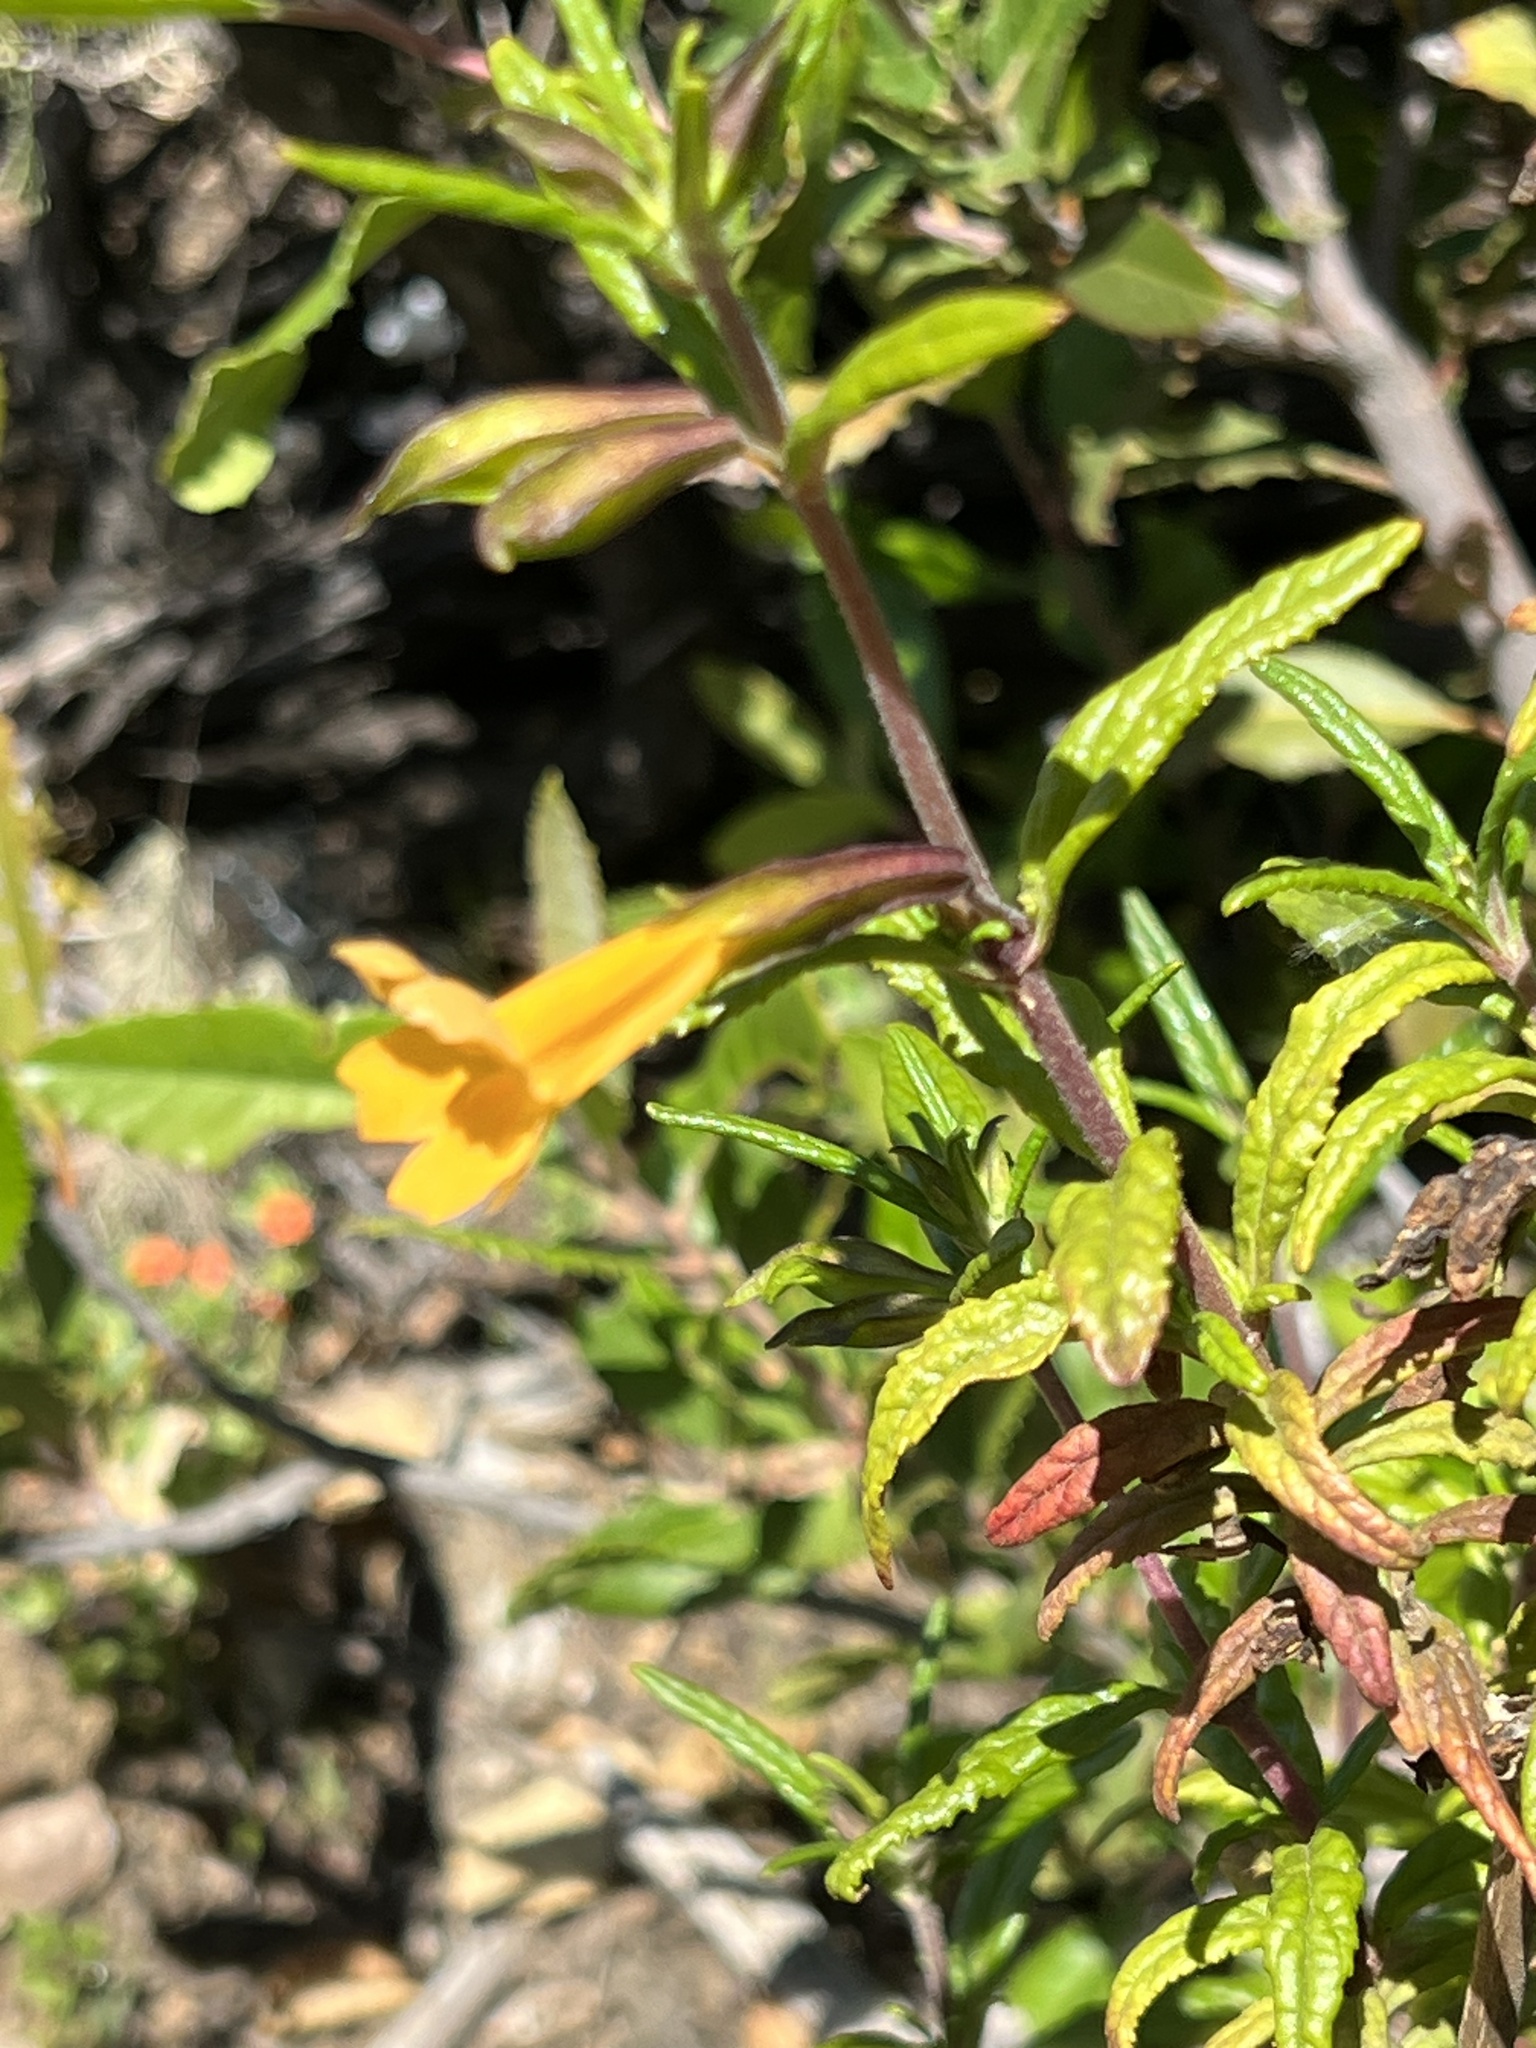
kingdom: Plantae
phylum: Tracheophyta
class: Magnoliopsida
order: Lamiales
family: Phrymaceae
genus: Diplacus
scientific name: Diplacus aurantiacus
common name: Bush monkey-flower
